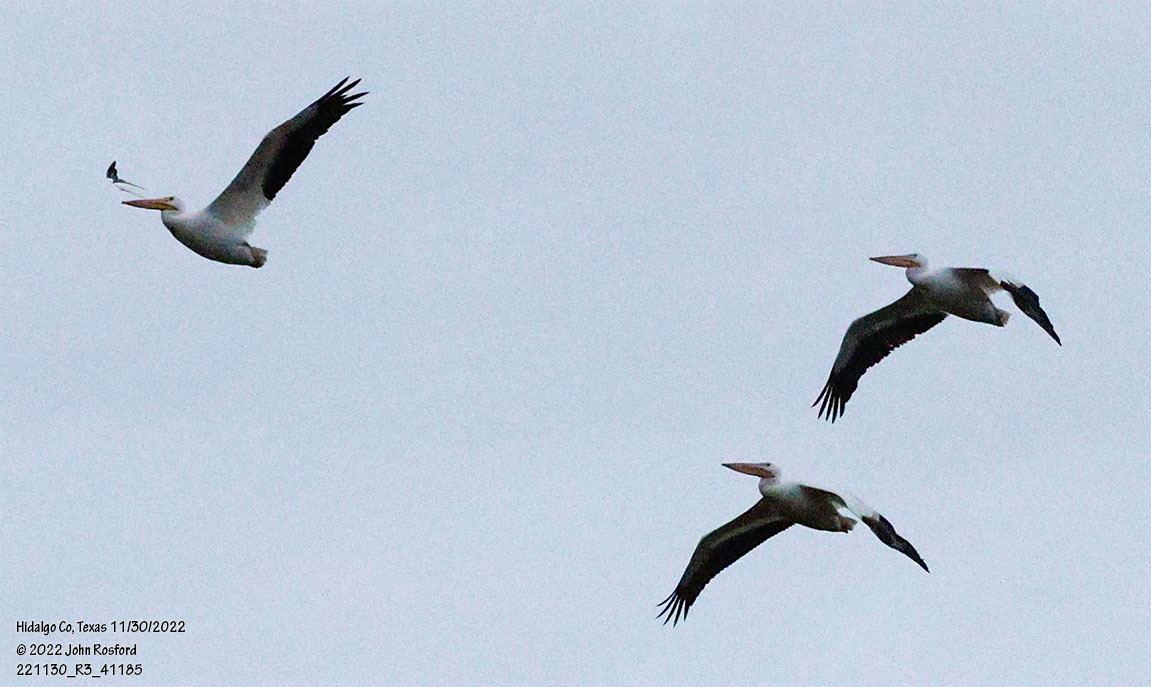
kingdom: Animalia
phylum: Chordata
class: Aves
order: Pelecaniformes
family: Pelecanidae
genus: Pelecanus
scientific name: Pelecanus erythrorhynchos
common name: American white pelican
